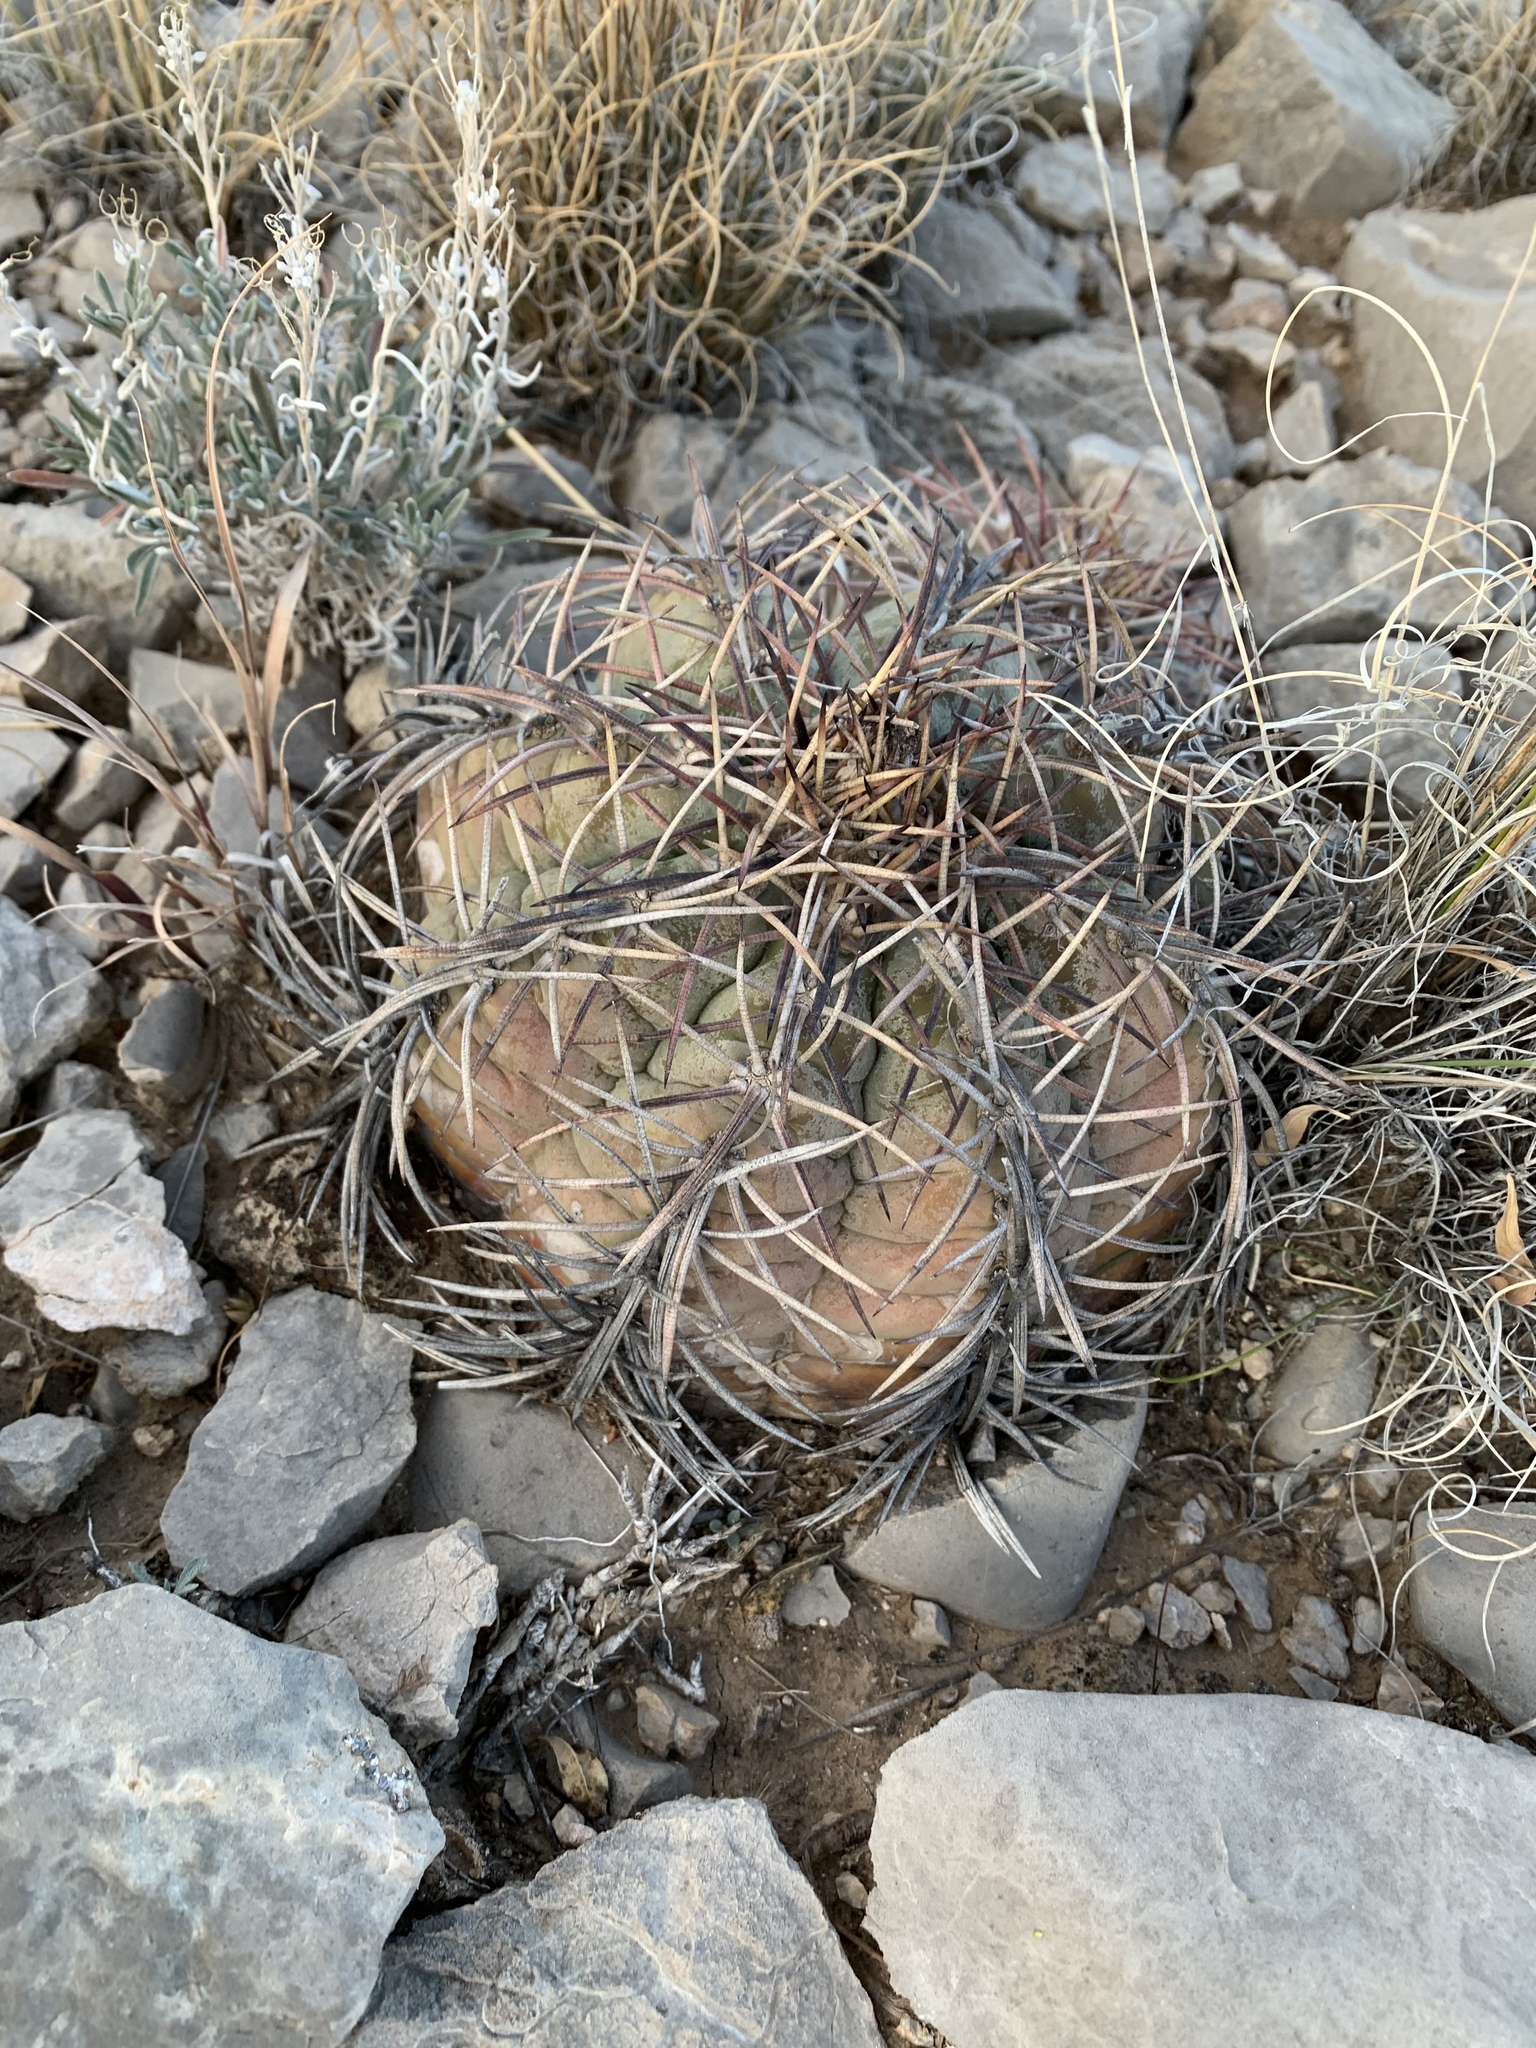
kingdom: Plantae
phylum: Tracheophyta
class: Magnoliopsida
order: Caryophyllales
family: Cactaceae
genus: Echinocactus
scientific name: Echinocactus horizonthalonius
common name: Devilshead
